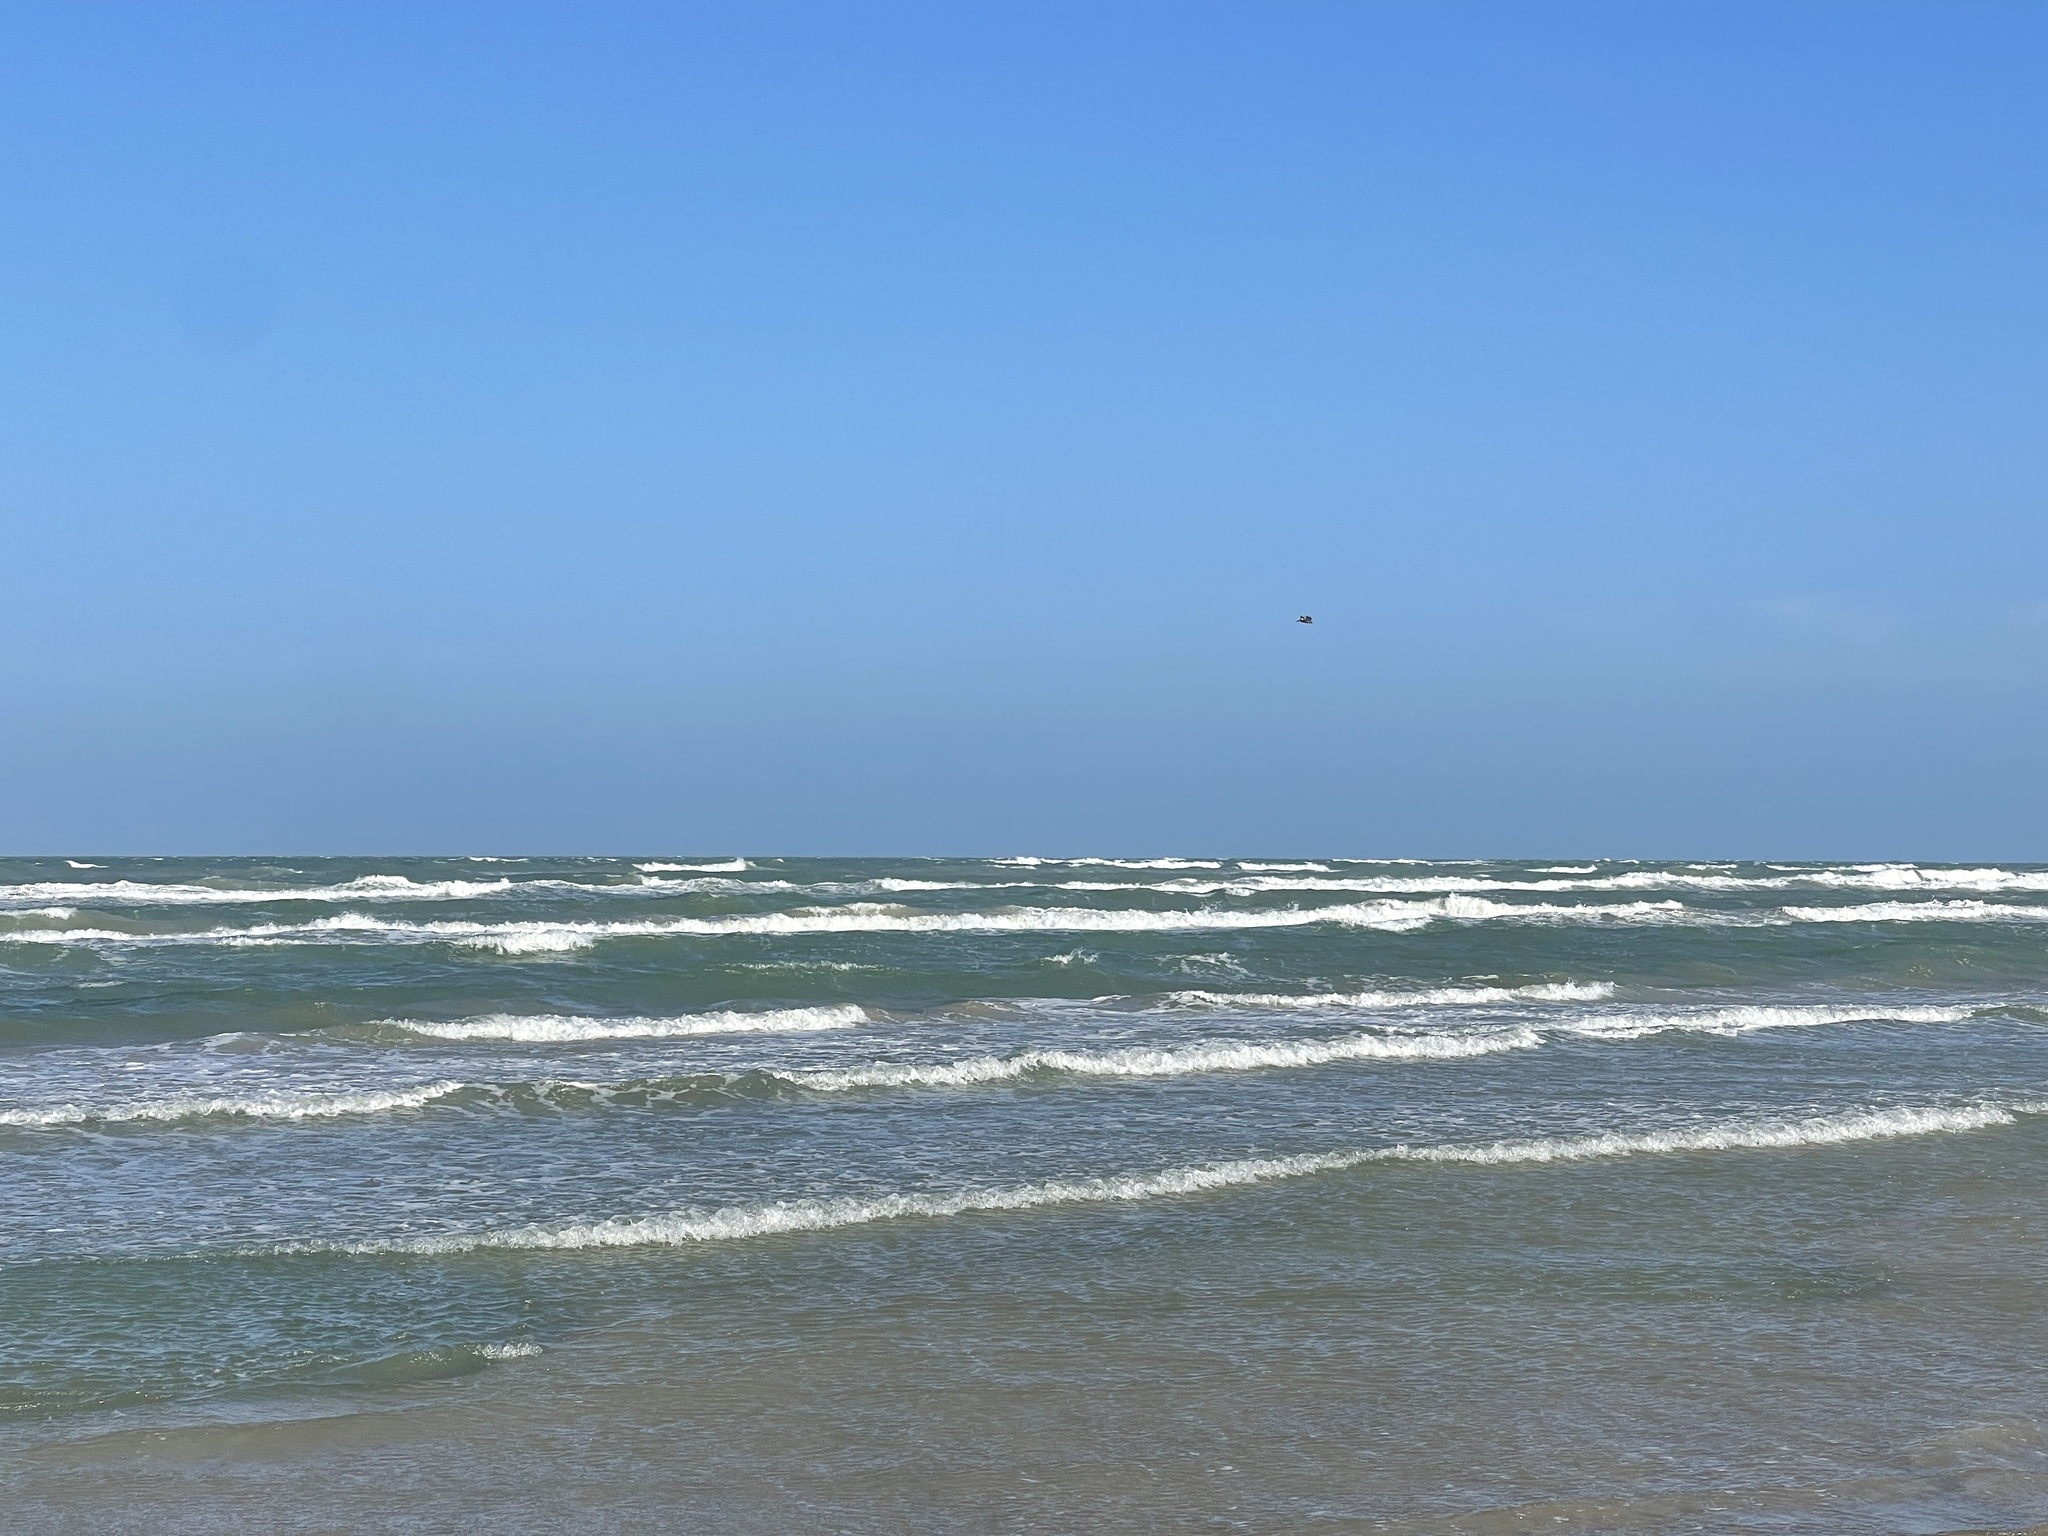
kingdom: Animalia
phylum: Chordata
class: Aves
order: Pelecaniformes
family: Pelecanidae
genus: Pelecanus
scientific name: Pelecanus occidentalis
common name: Brown pelican
